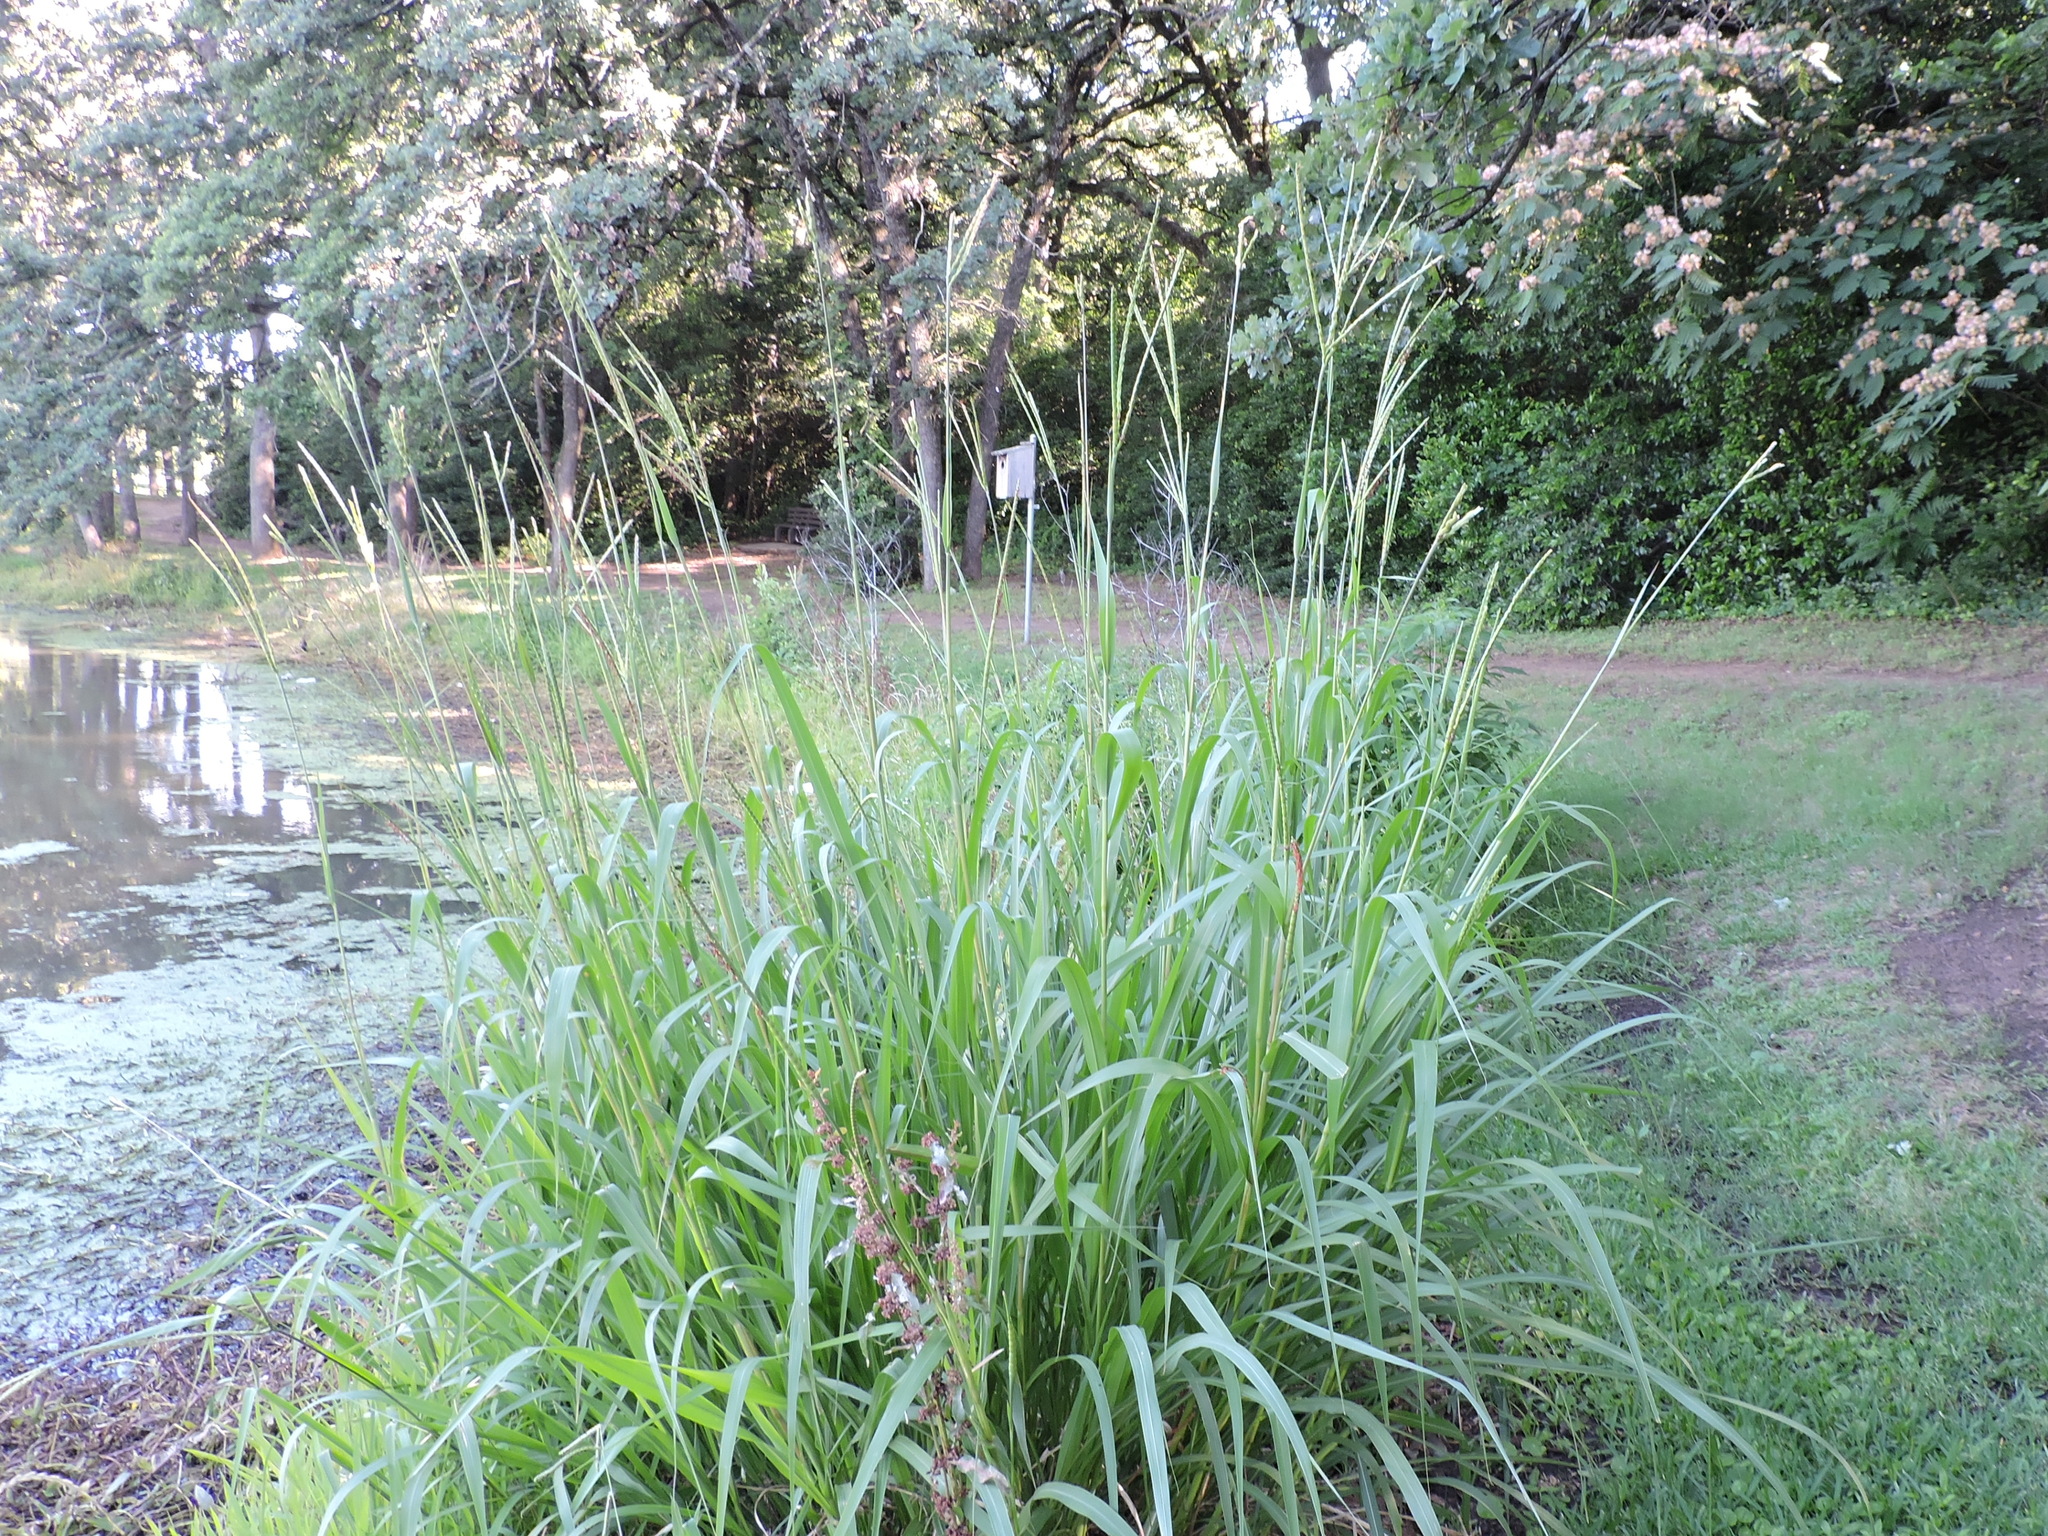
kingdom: Plantae
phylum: Tracheophyta
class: Liliopsida
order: Poales
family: Poaceae
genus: Tripsacum
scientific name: Tripsacum dactyloides
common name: Buffalo-grass
